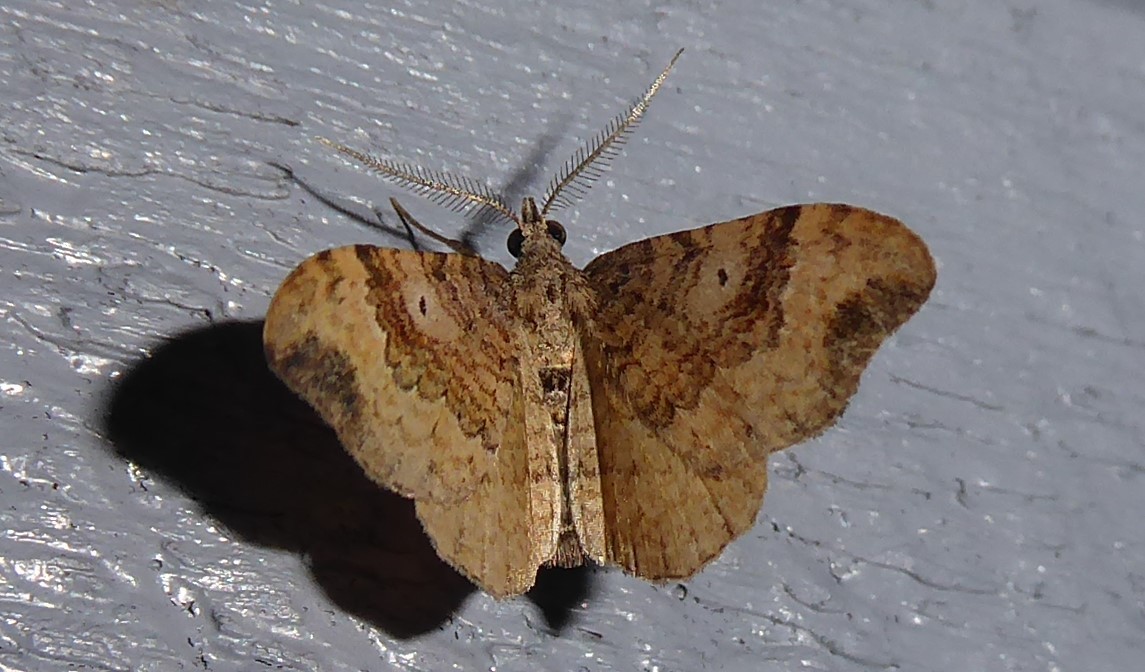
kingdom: Animalia
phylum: Arthropoda
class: Insecta
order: Lepidoptera
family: Geometridae
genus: Homodotis
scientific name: Homodotis megaspilata
